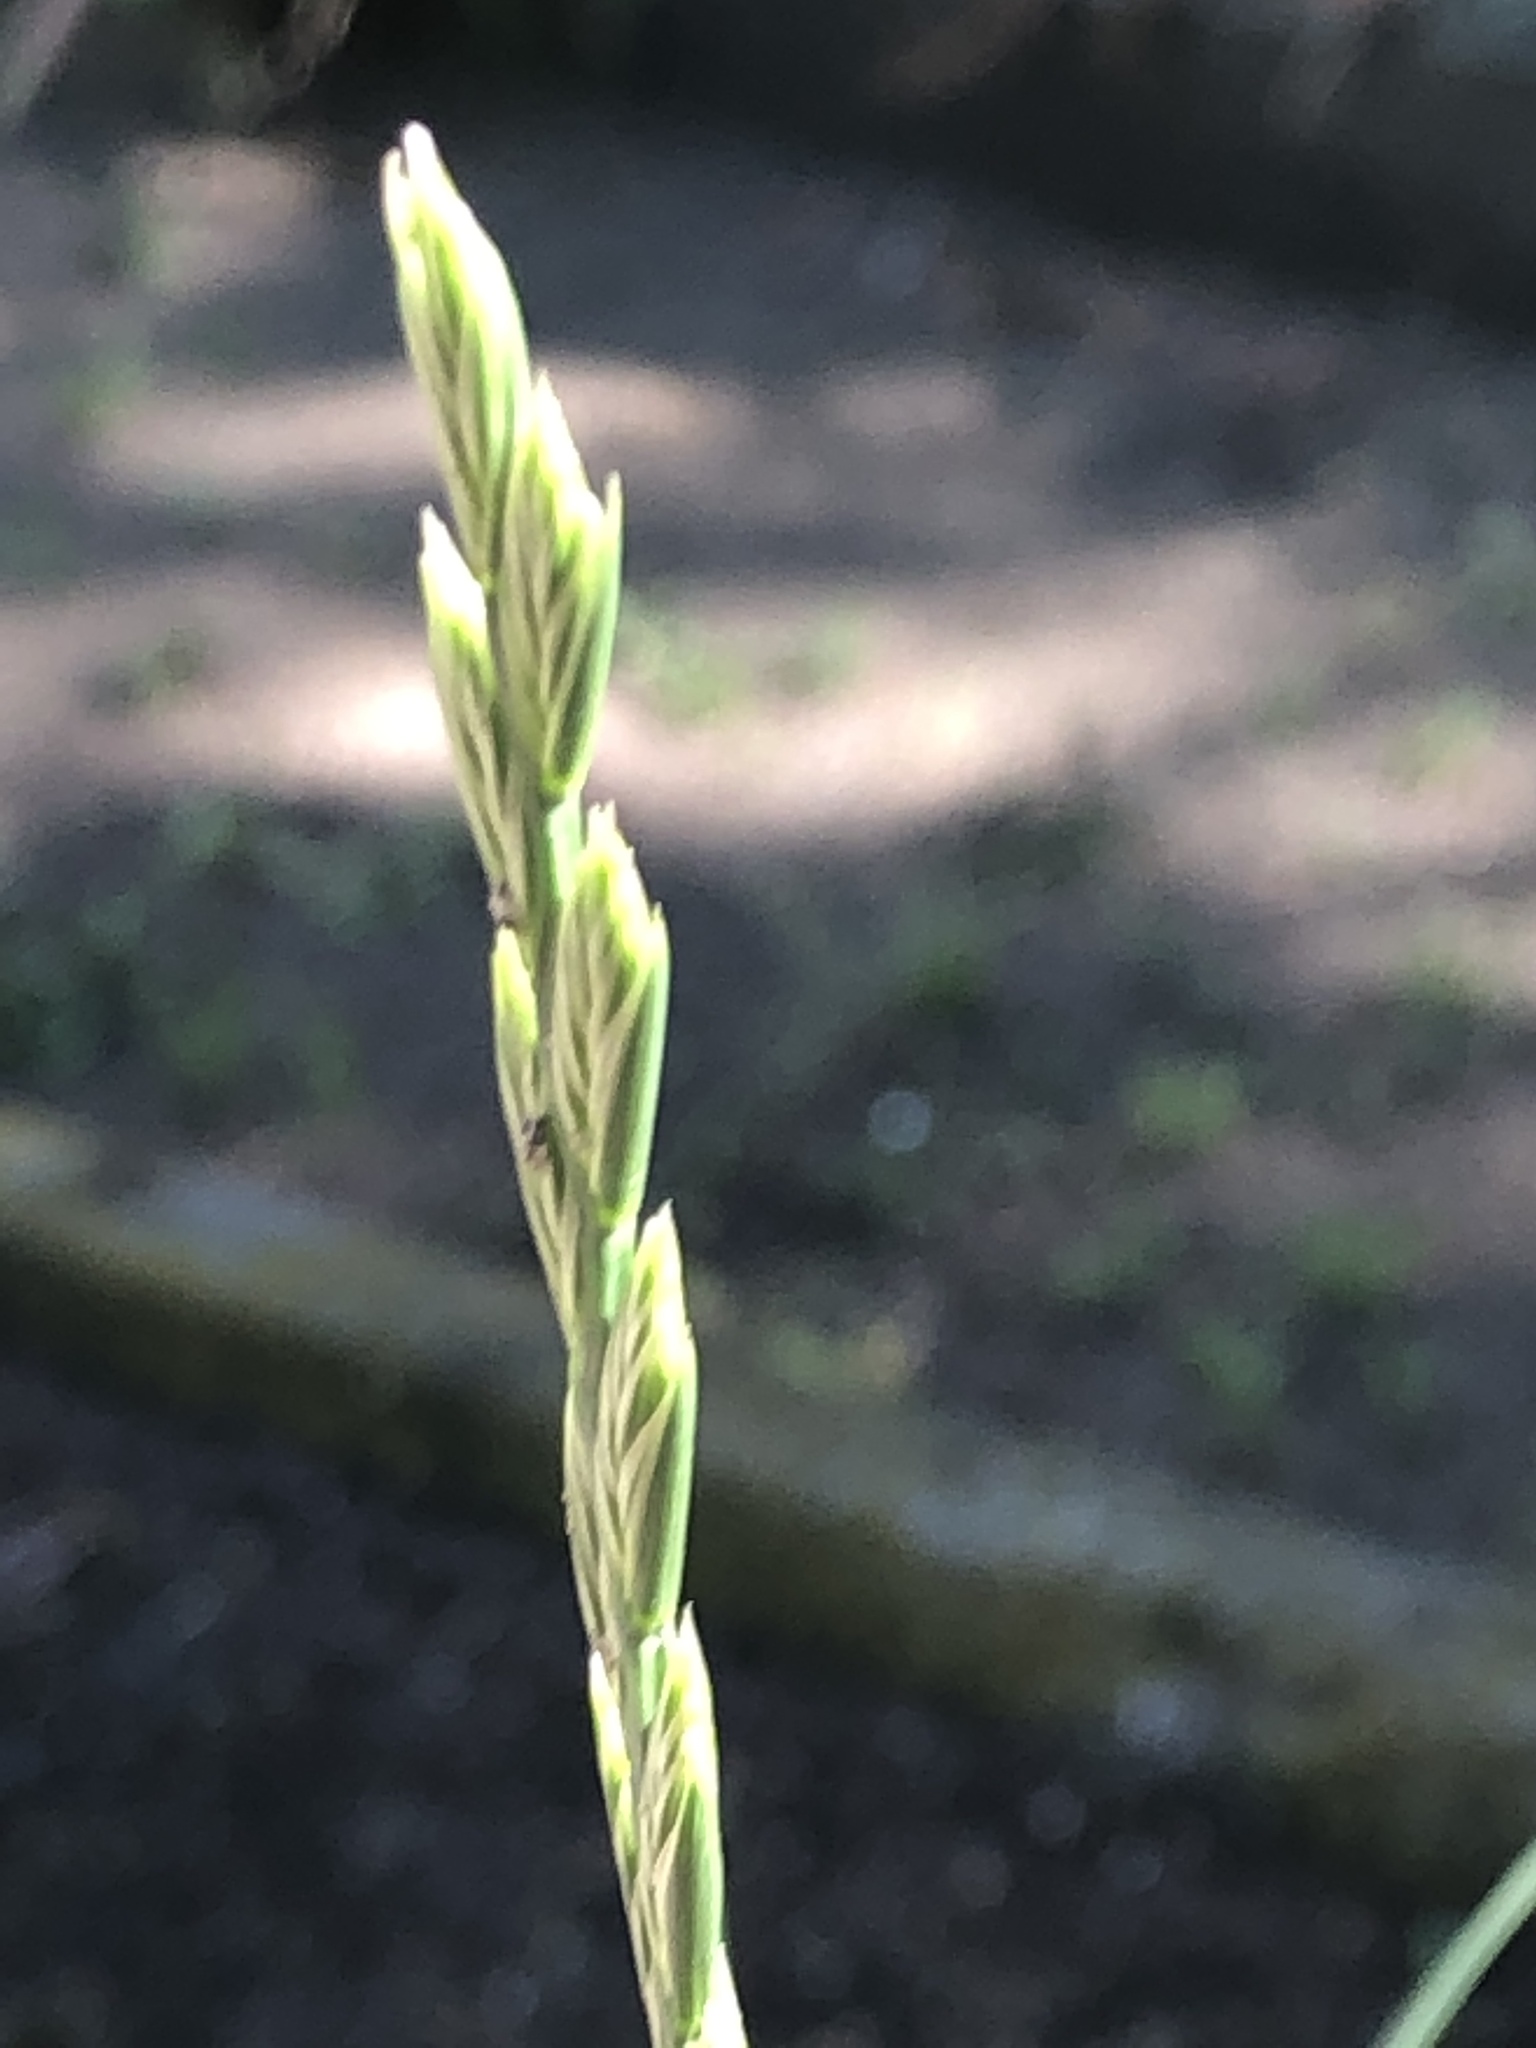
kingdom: Plantae
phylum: Tracheophyta
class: Liliopsida
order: Poales
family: Poaceae
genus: Lolium
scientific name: Lolium perenne
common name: Perennial ryegrass
